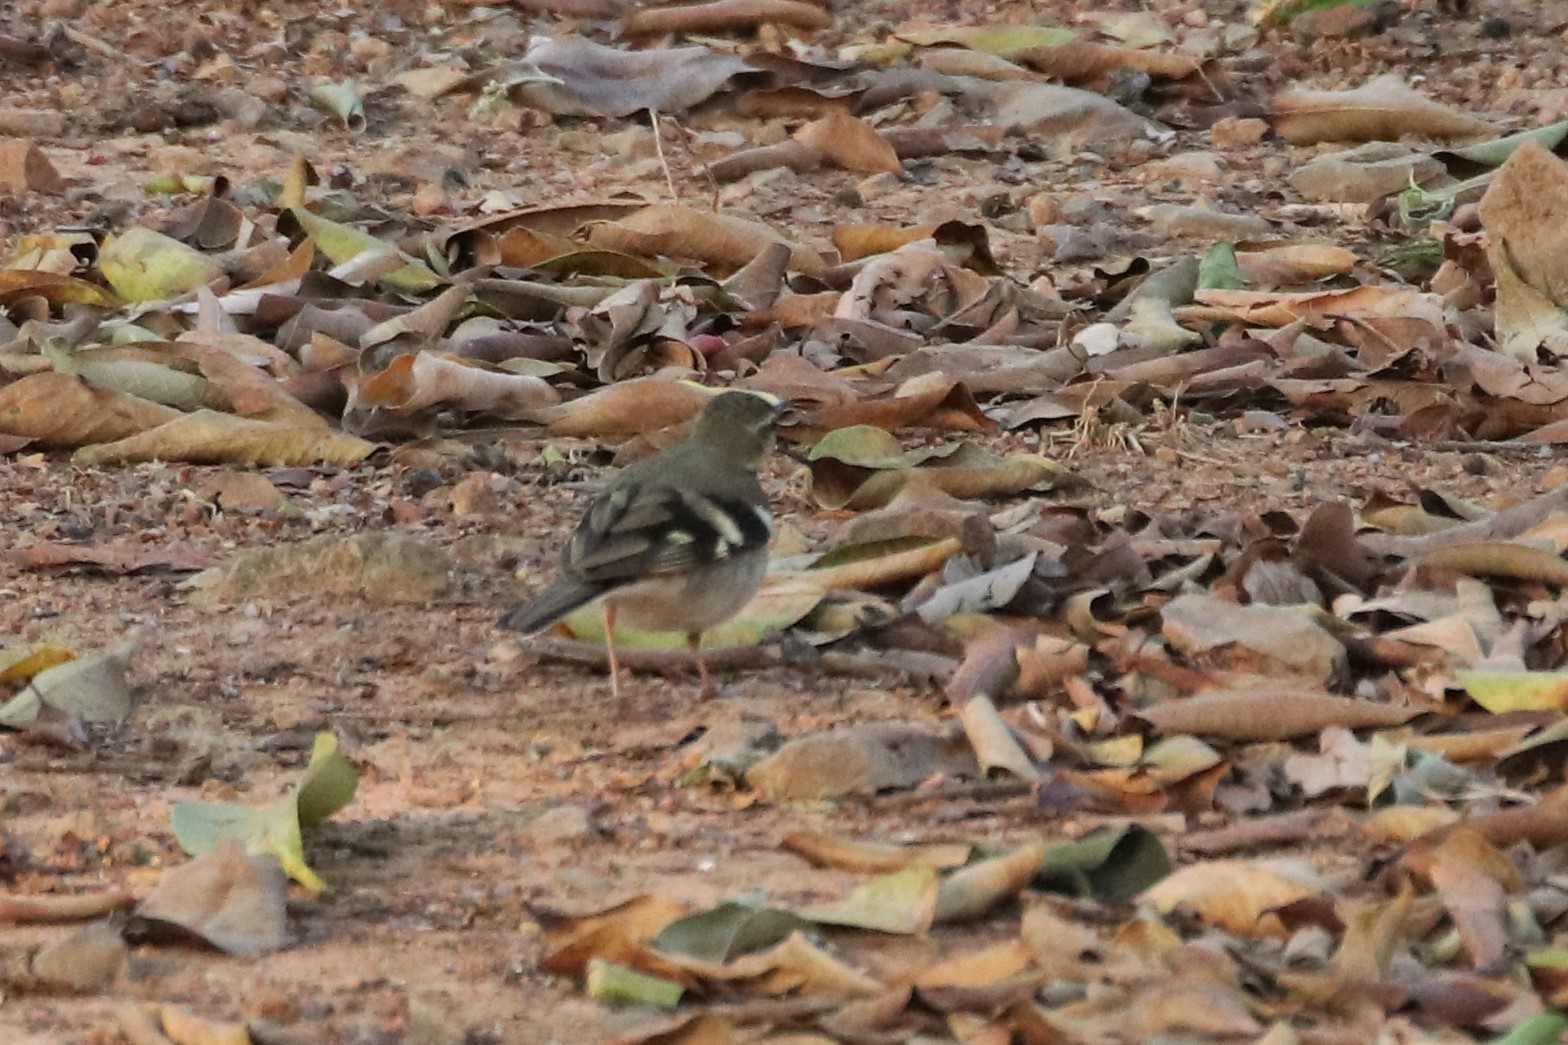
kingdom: Animalia
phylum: Chordata
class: Aves
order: Passeriformes
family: Motacillidae
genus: Dendronanthus
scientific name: Dendronanthus indicus
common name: Forest wagtail
